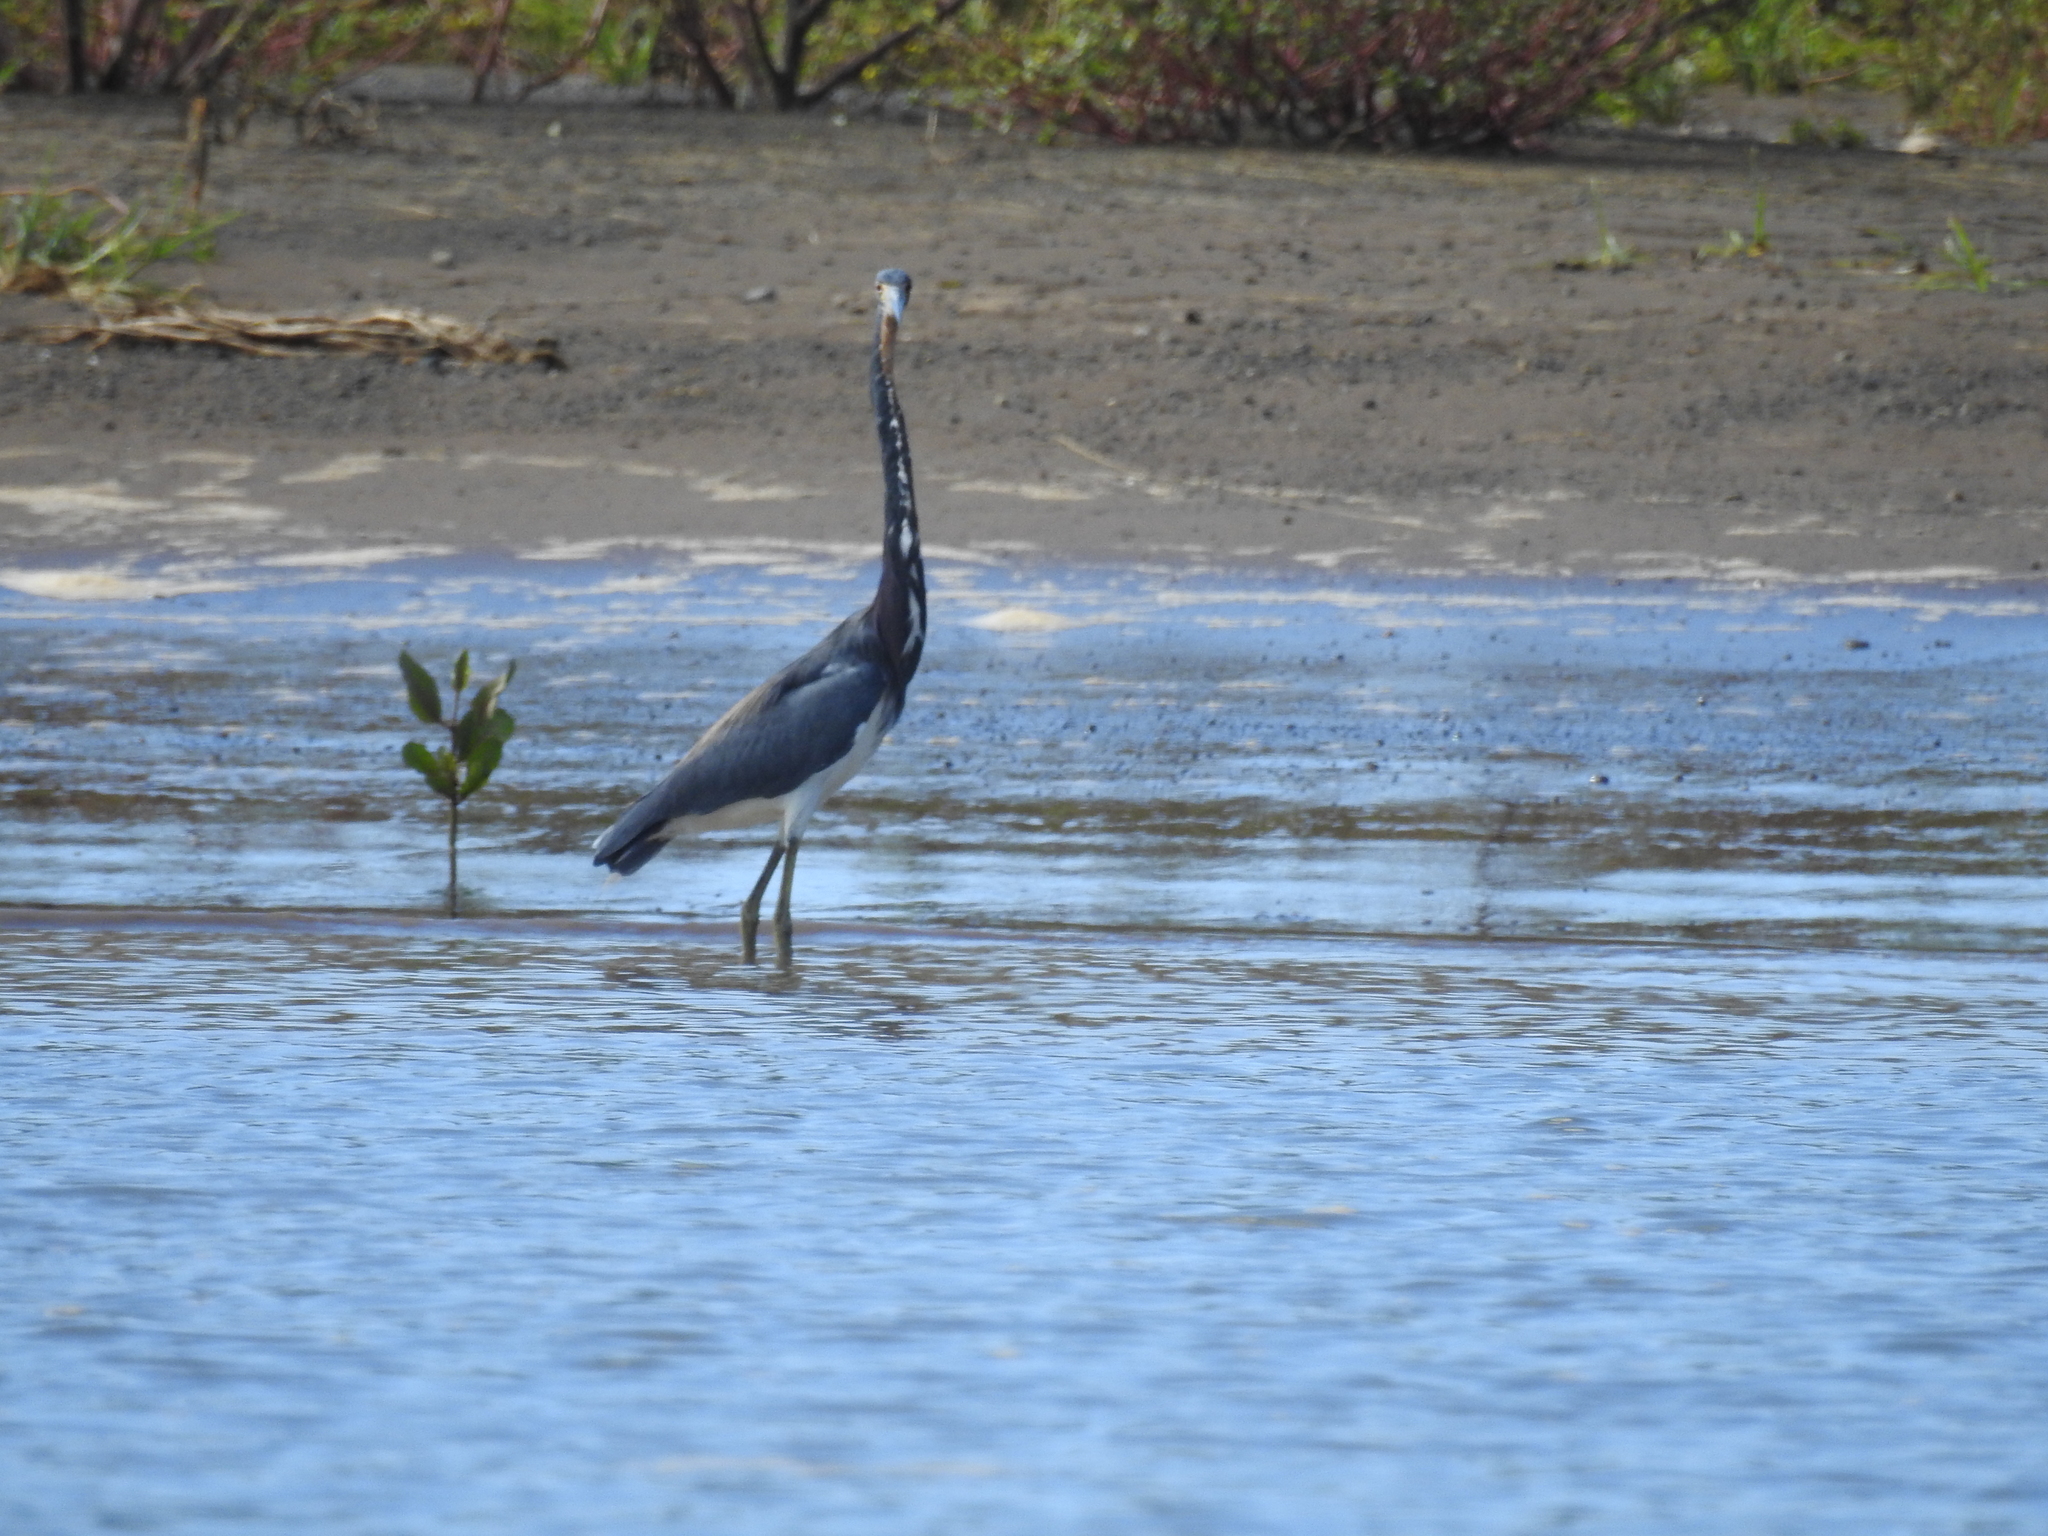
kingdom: Animalia
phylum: Chordata
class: Aves
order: Pelecaniformes
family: Ardeidae
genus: Egretta
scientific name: Egretta tricolor
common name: Tricolored heron
